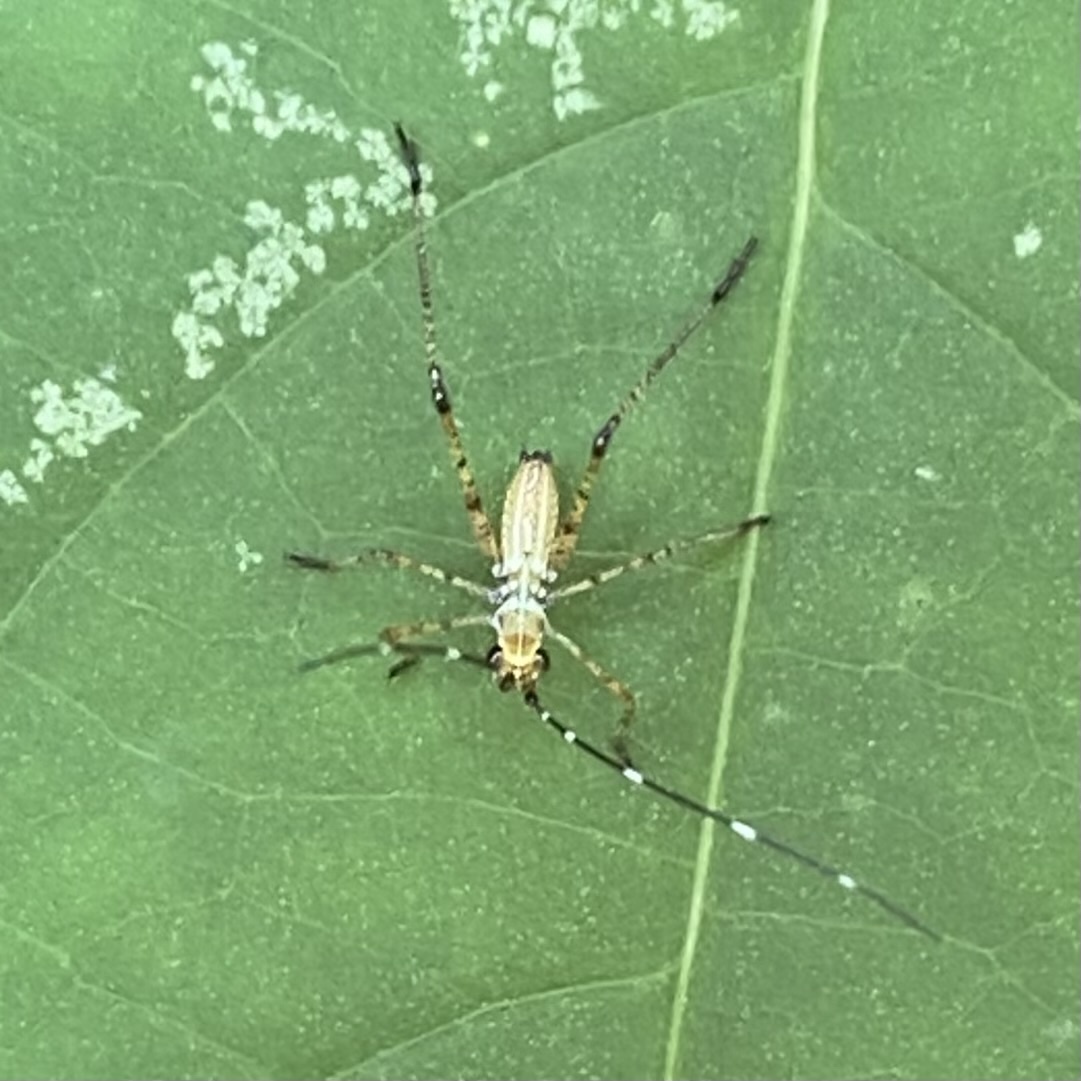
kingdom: Animalia
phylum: Arthropoda
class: Insecta
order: Orthoptera
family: Tettigoniidae
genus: Scudderia
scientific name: Scudderia
